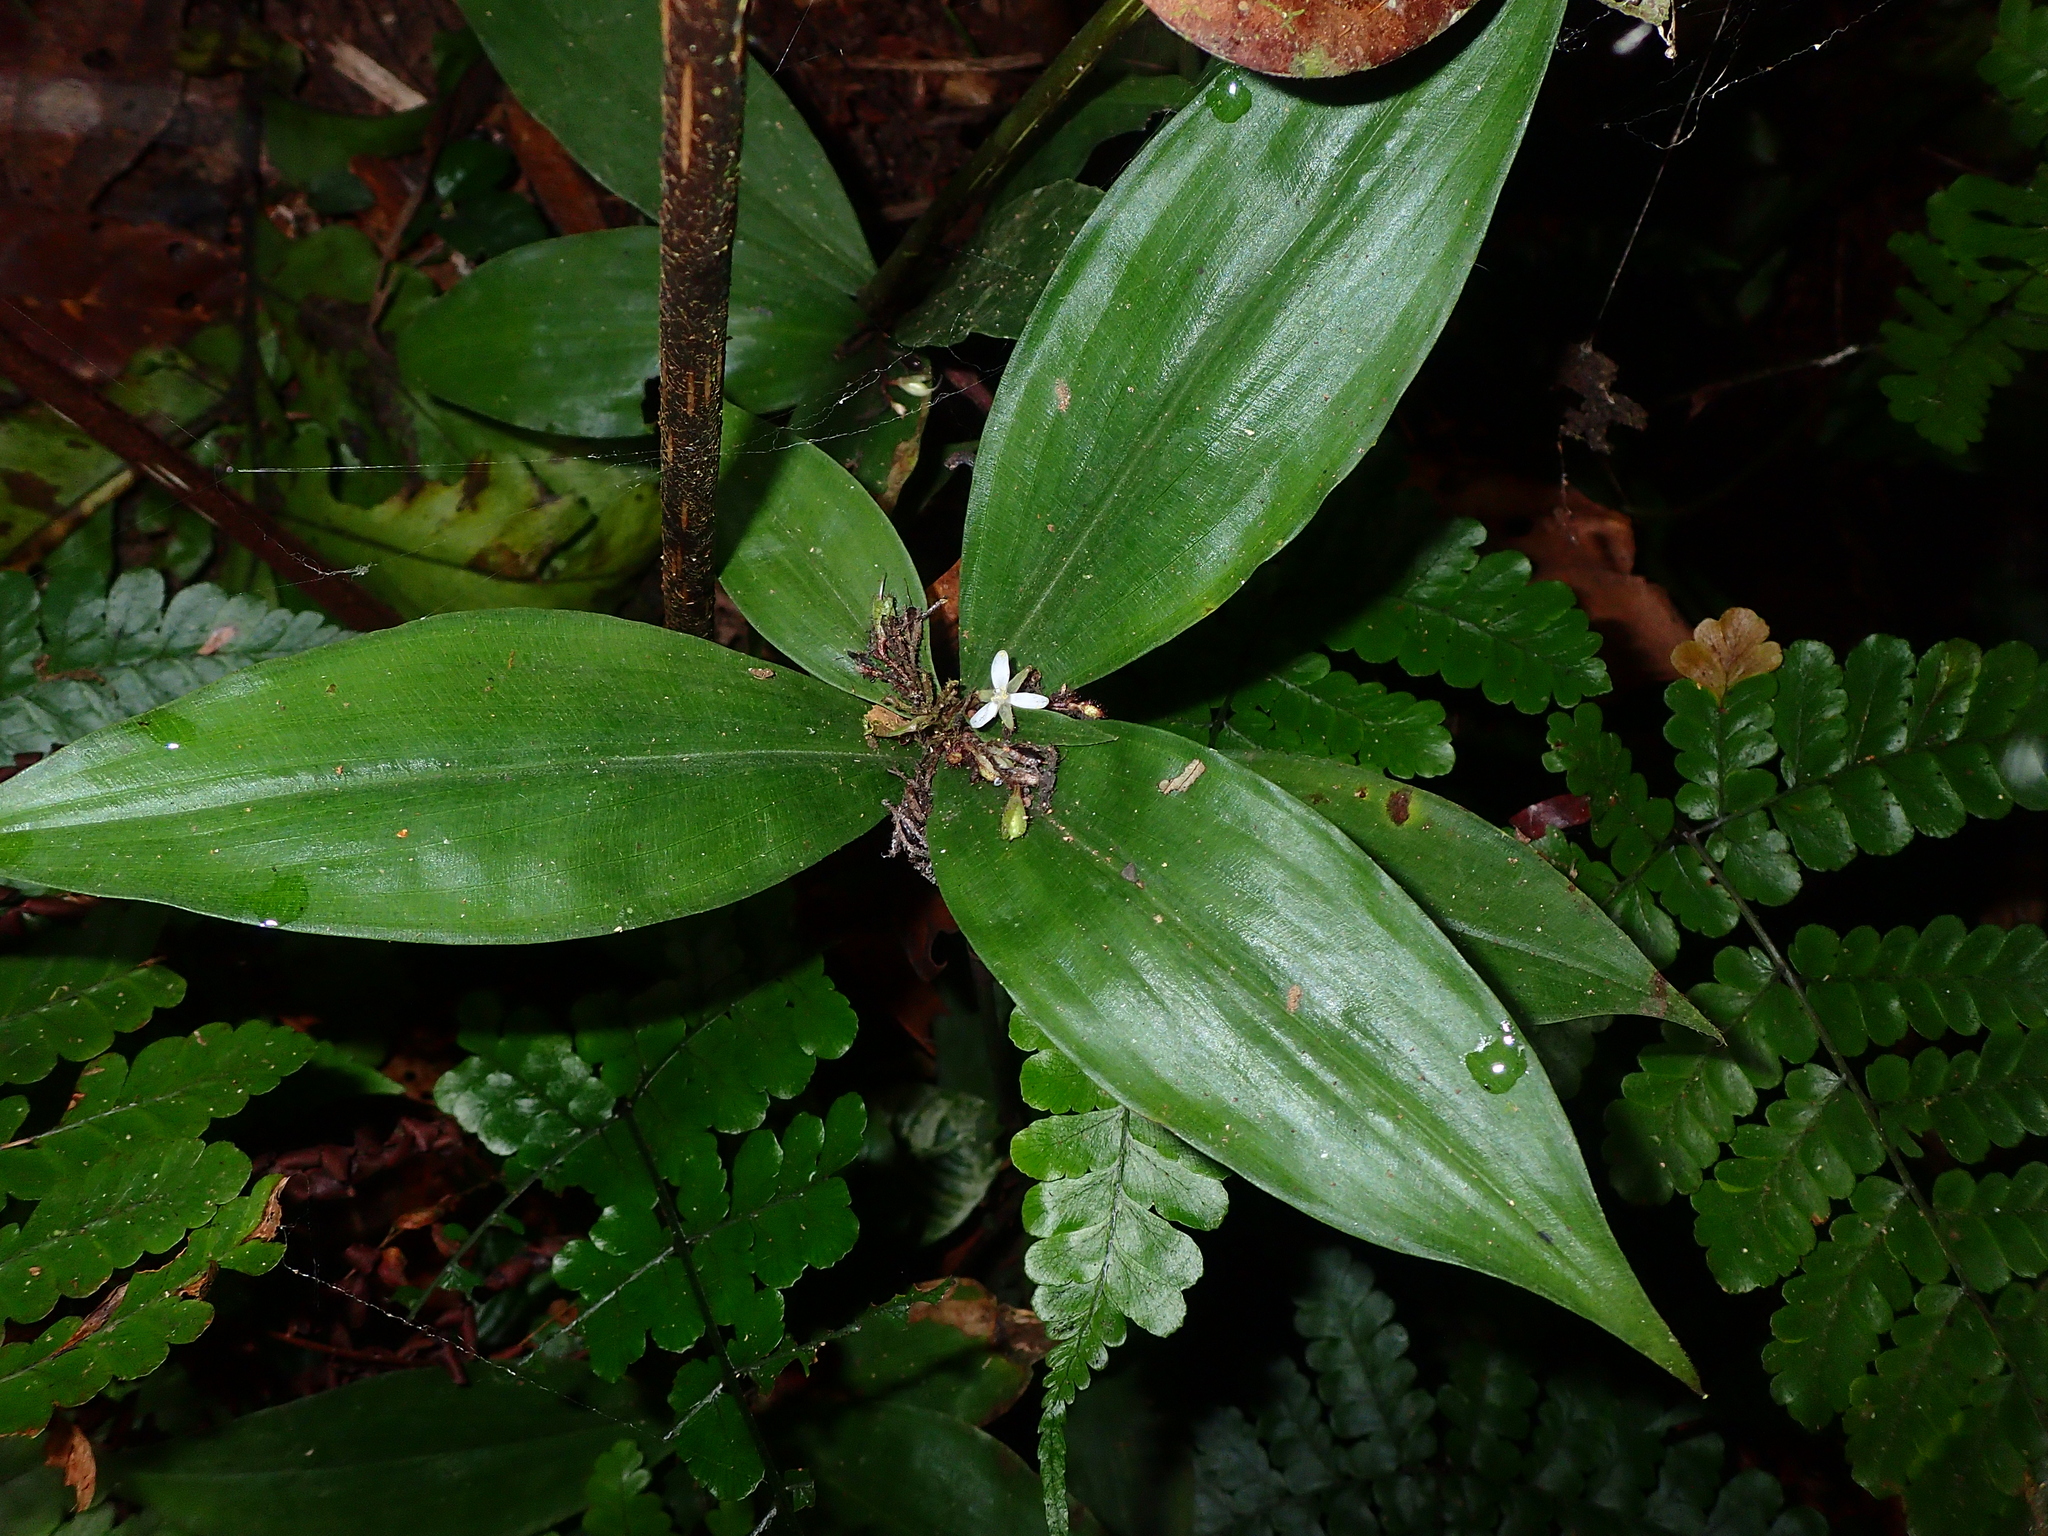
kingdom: Plantae
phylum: Tracheophyta
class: Liliopsida
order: Commelinales
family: Commelinaceae
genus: Stanfieldiella
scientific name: Stanfieldiella imperforata
